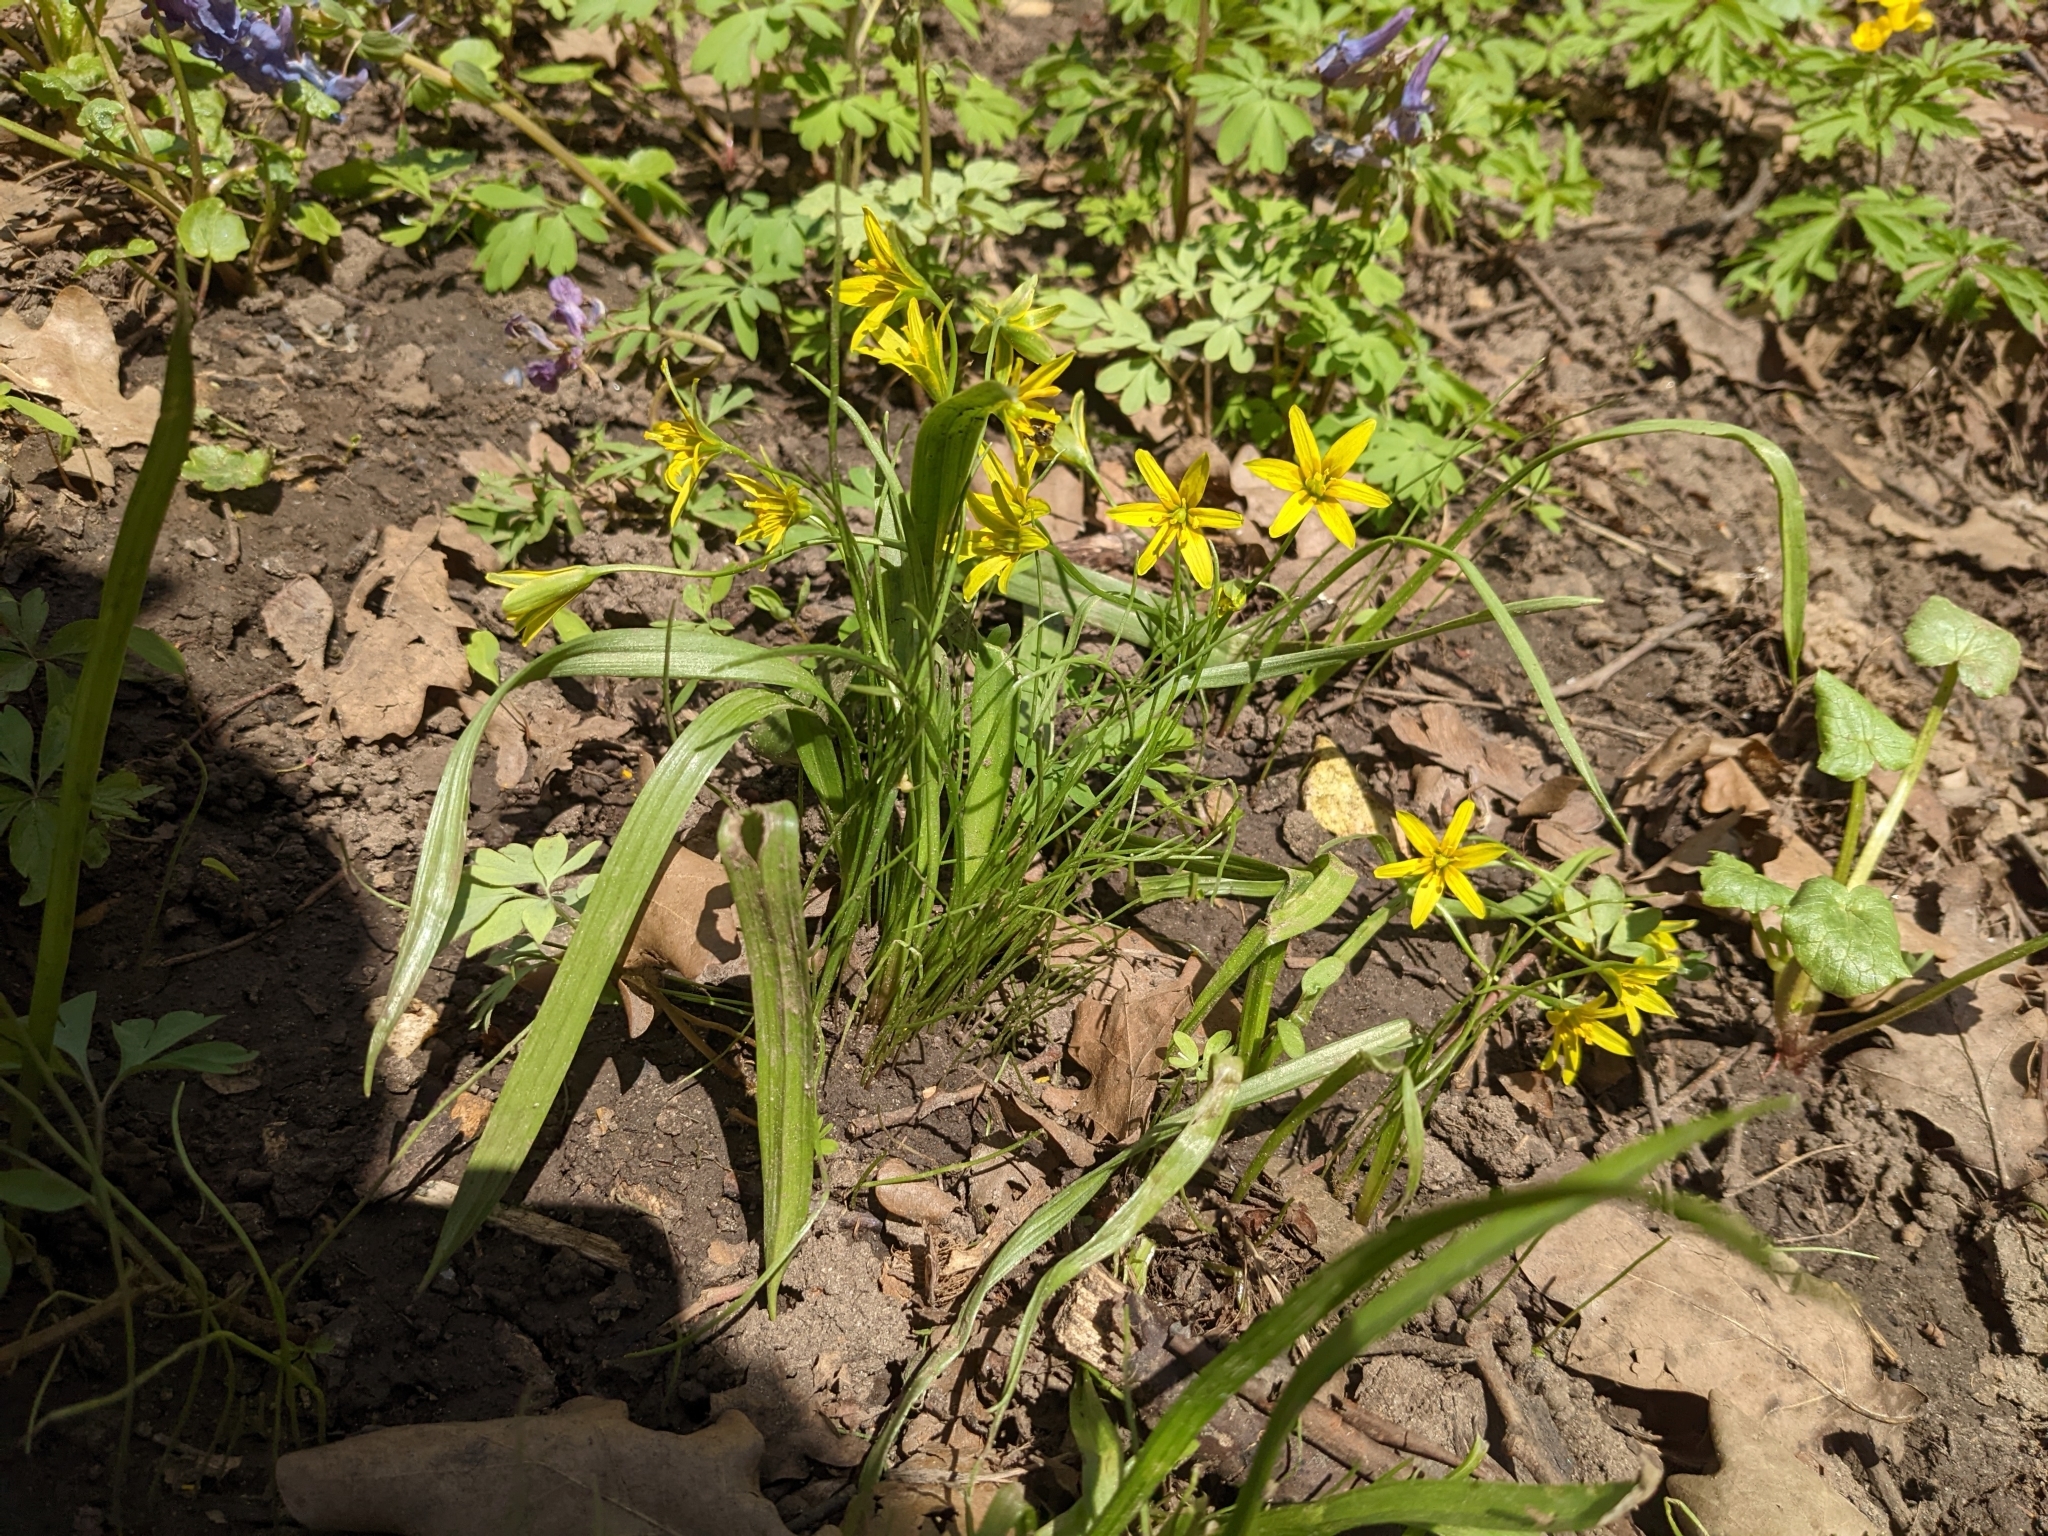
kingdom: Plantae
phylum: Tracheophyta
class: Liliopsida
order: Liliales
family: Liliaceae
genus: Gagea
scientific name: Gagea lutea
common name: Yellow star-of-bethlehem
